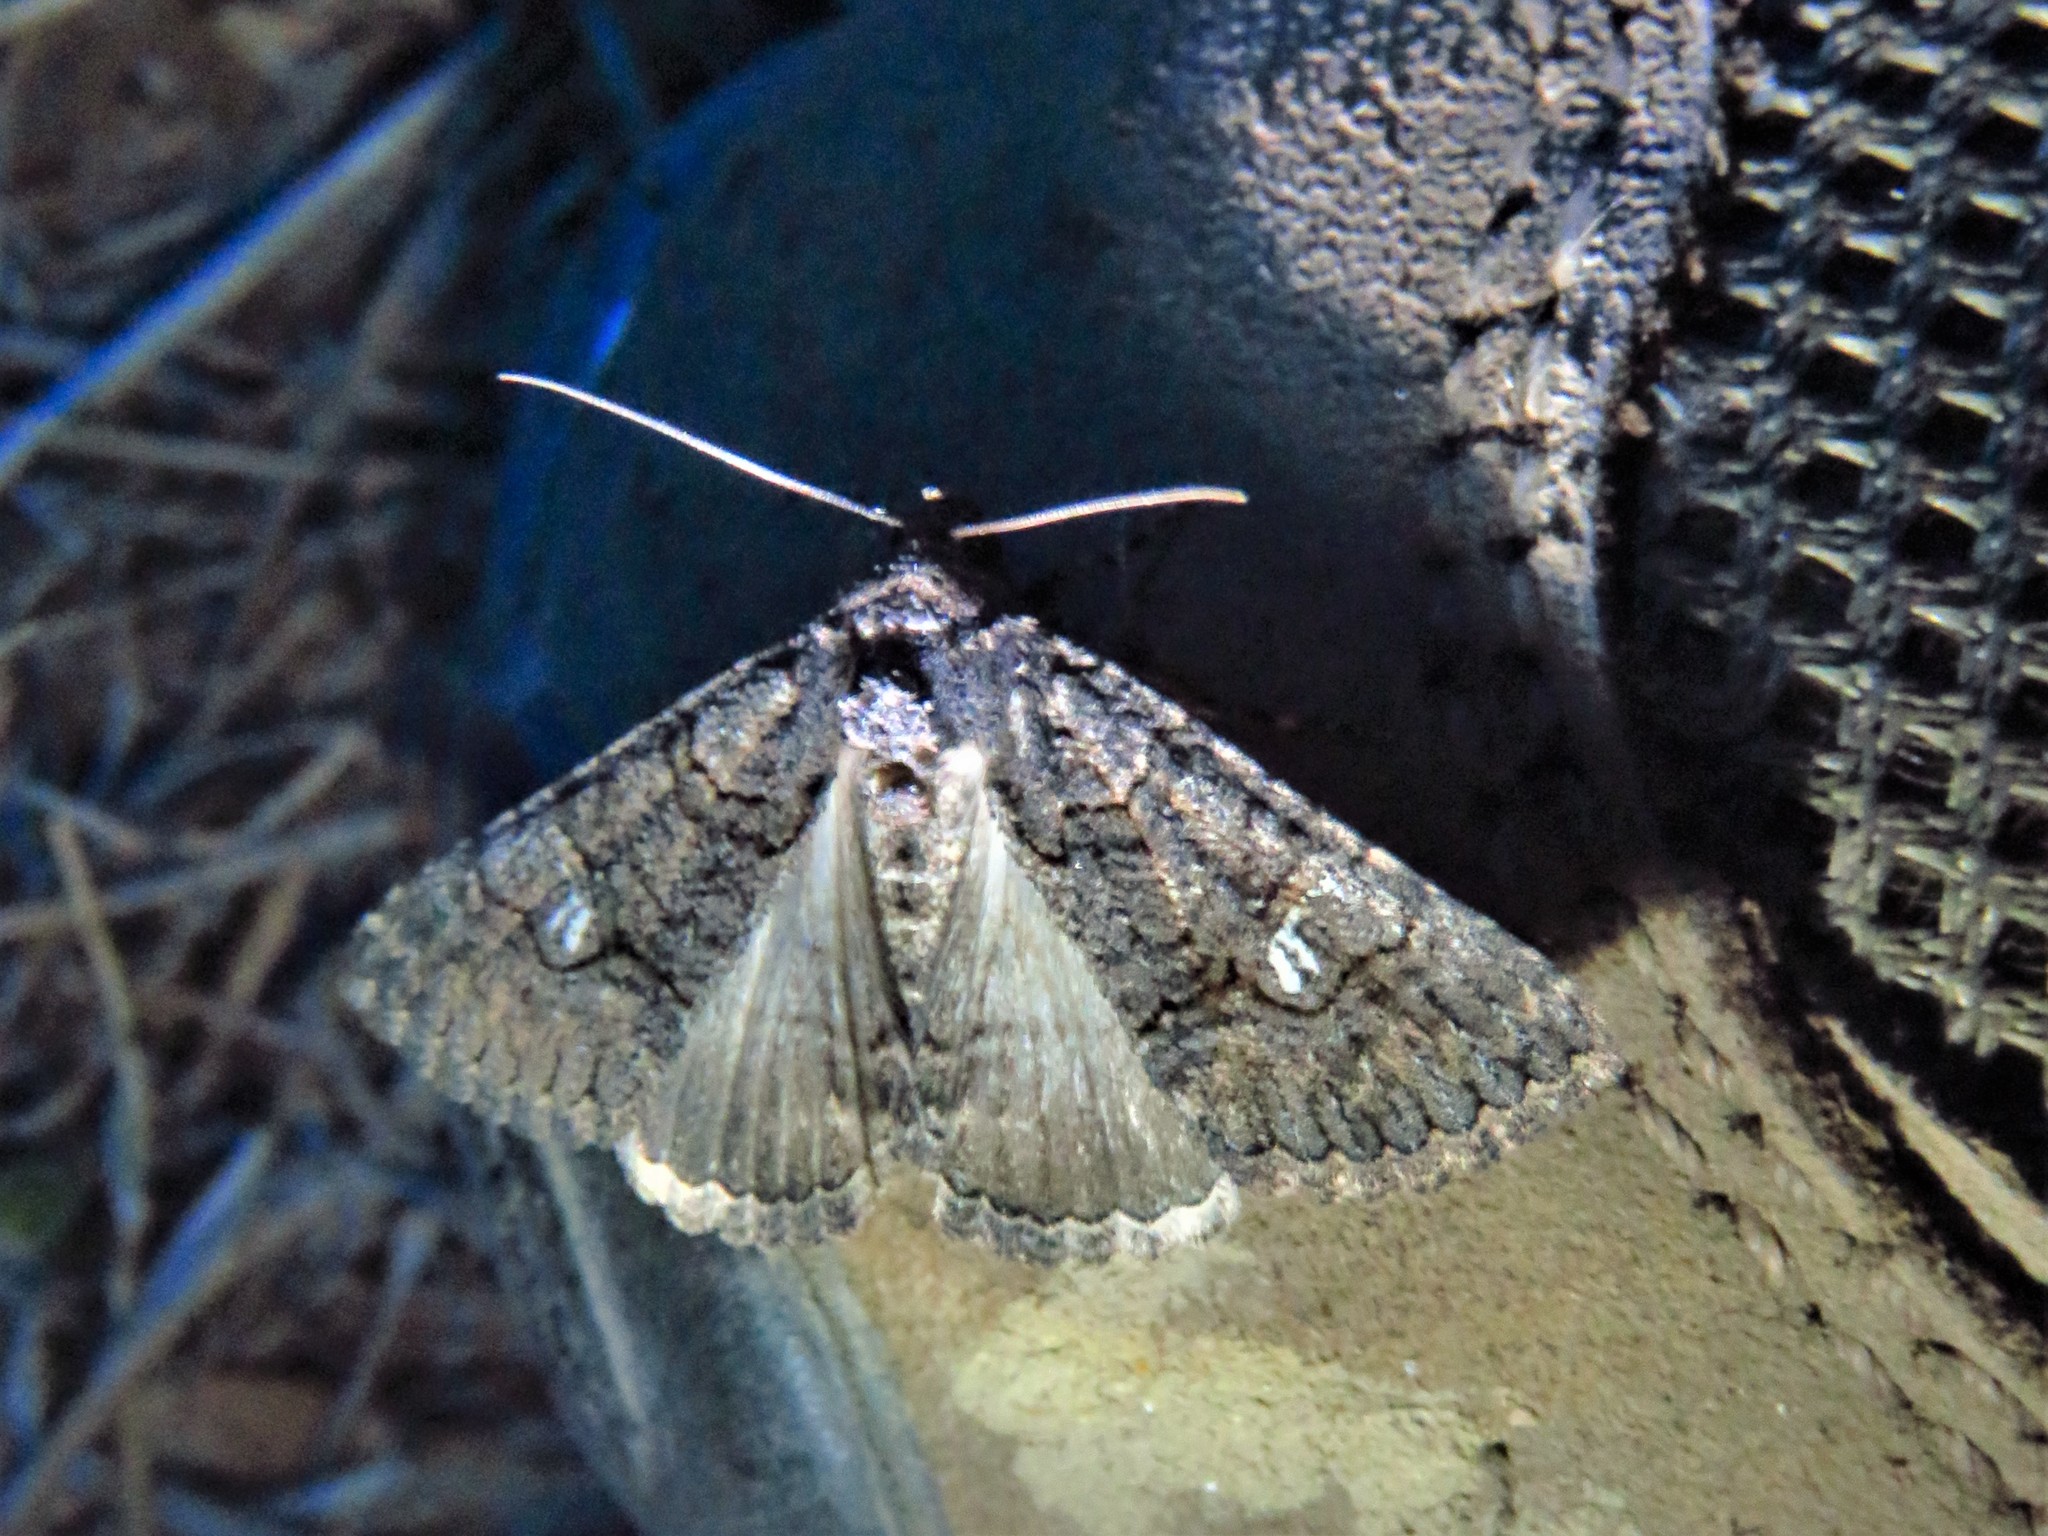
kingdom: Animalia
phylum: Arthropoda
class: Insecta
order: Lepidoptera
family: Erebidae
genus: Elousa
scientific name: Elousa mima
